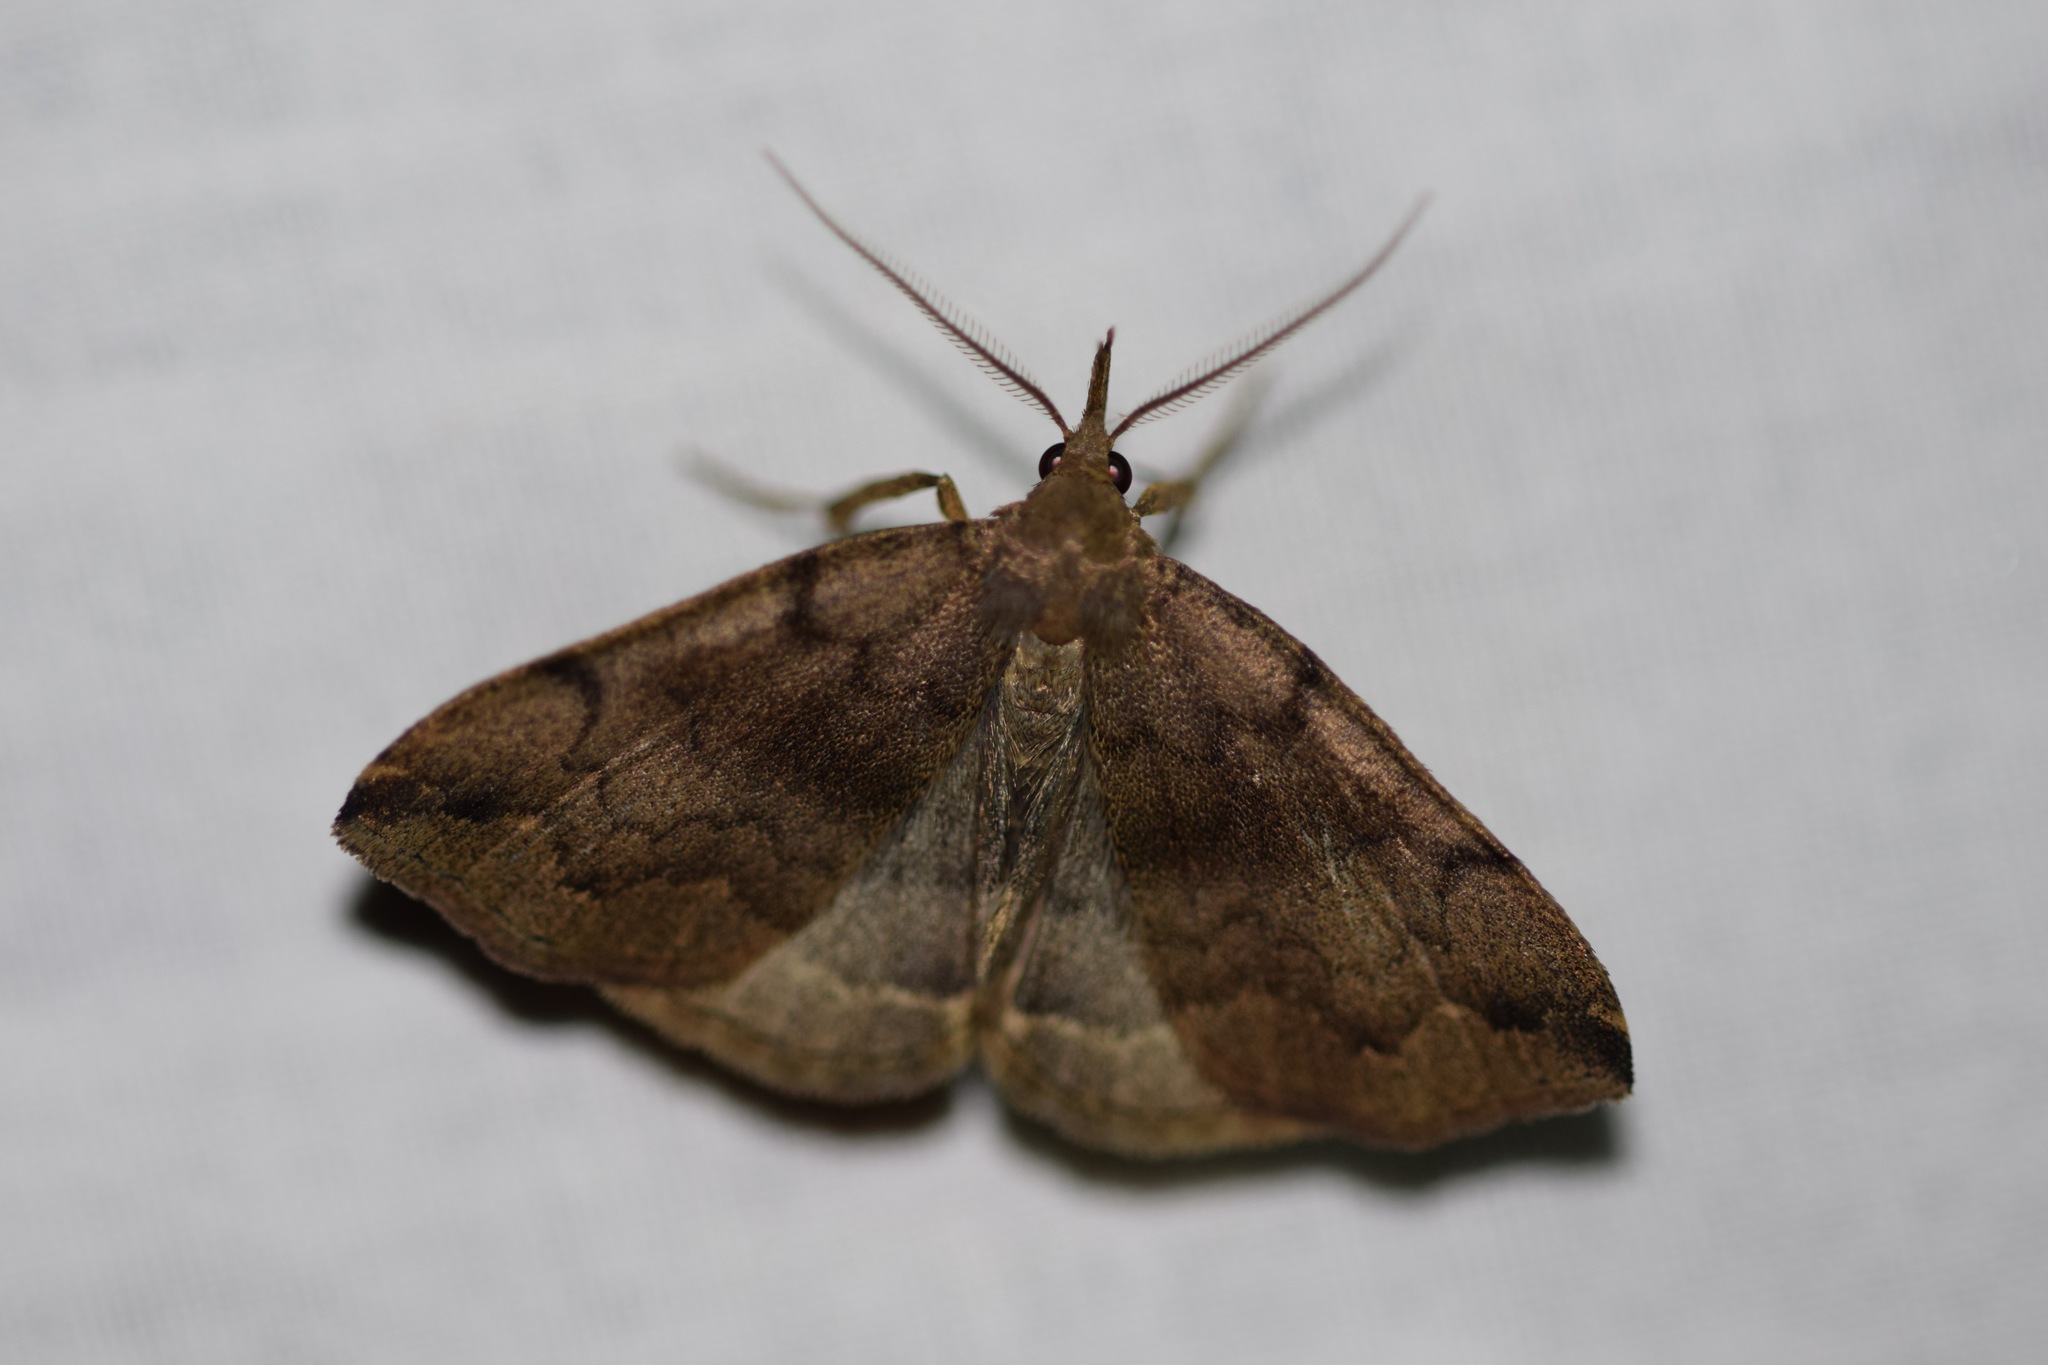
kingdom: Animalia
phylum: Arthropoda
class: Insecta
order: Lepidoptera
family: Erebidae
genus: Phalaenostola
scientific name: Phalaenostola eumelusalis
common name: Dark phalaenostola moth
